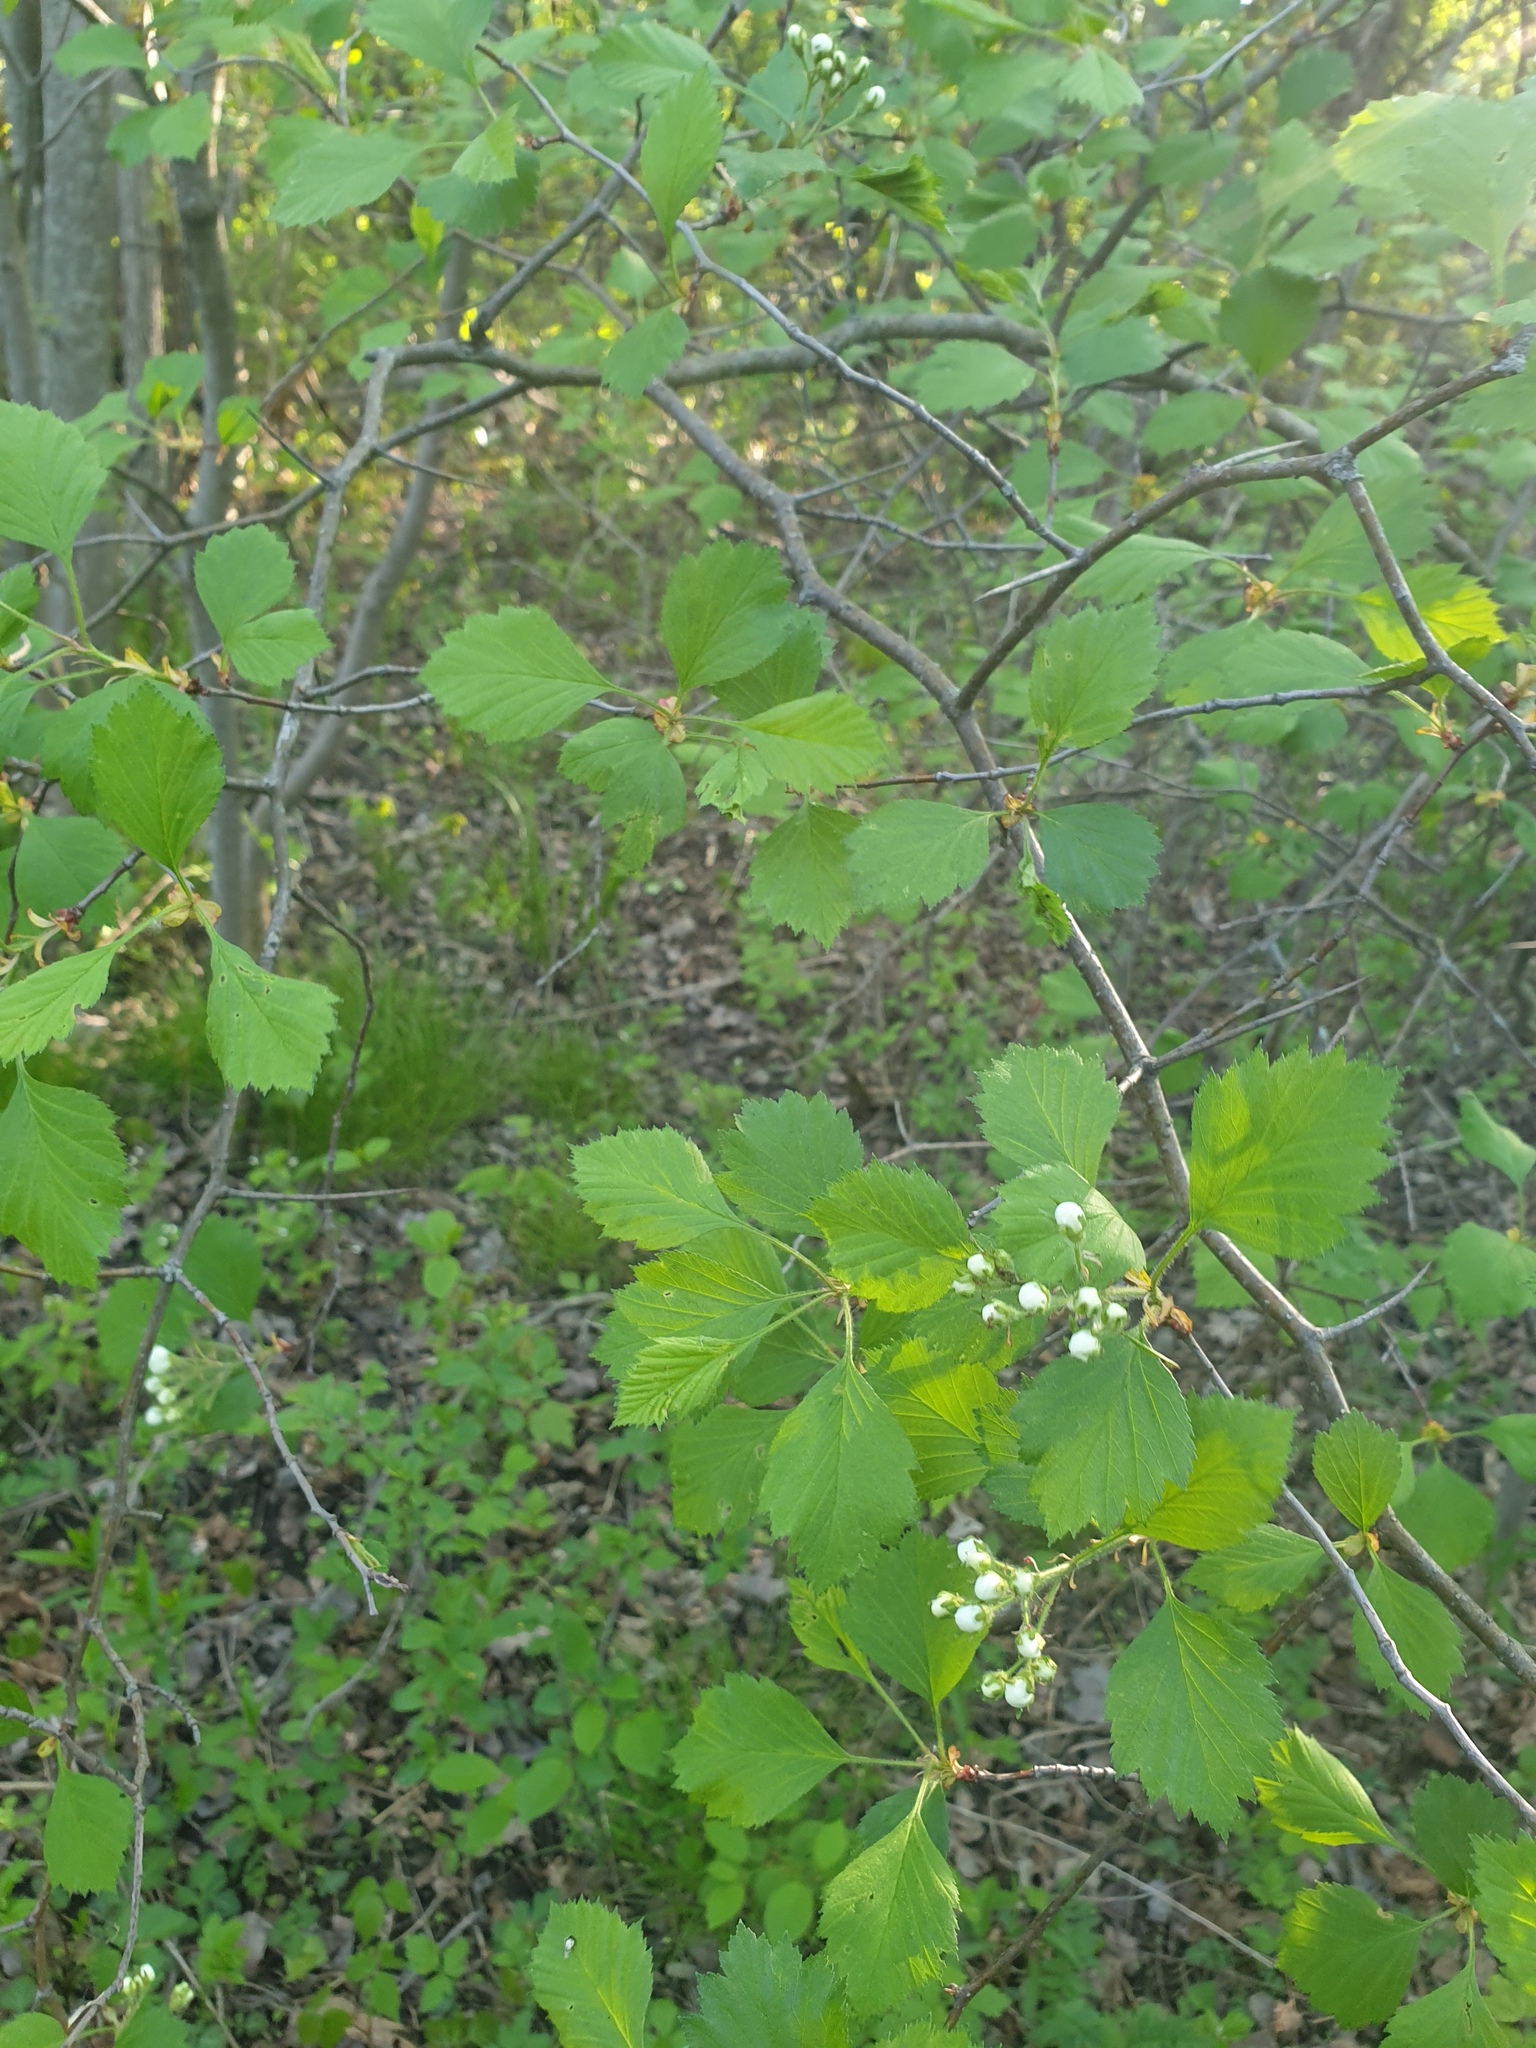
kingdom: Plantae
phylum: Tracheophyta
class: Magnoliopsida
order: Rosales
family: Rosaceae
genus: Crataegus
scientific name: Crataegus chrysocarpa
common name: Fire-berry hawthorn
